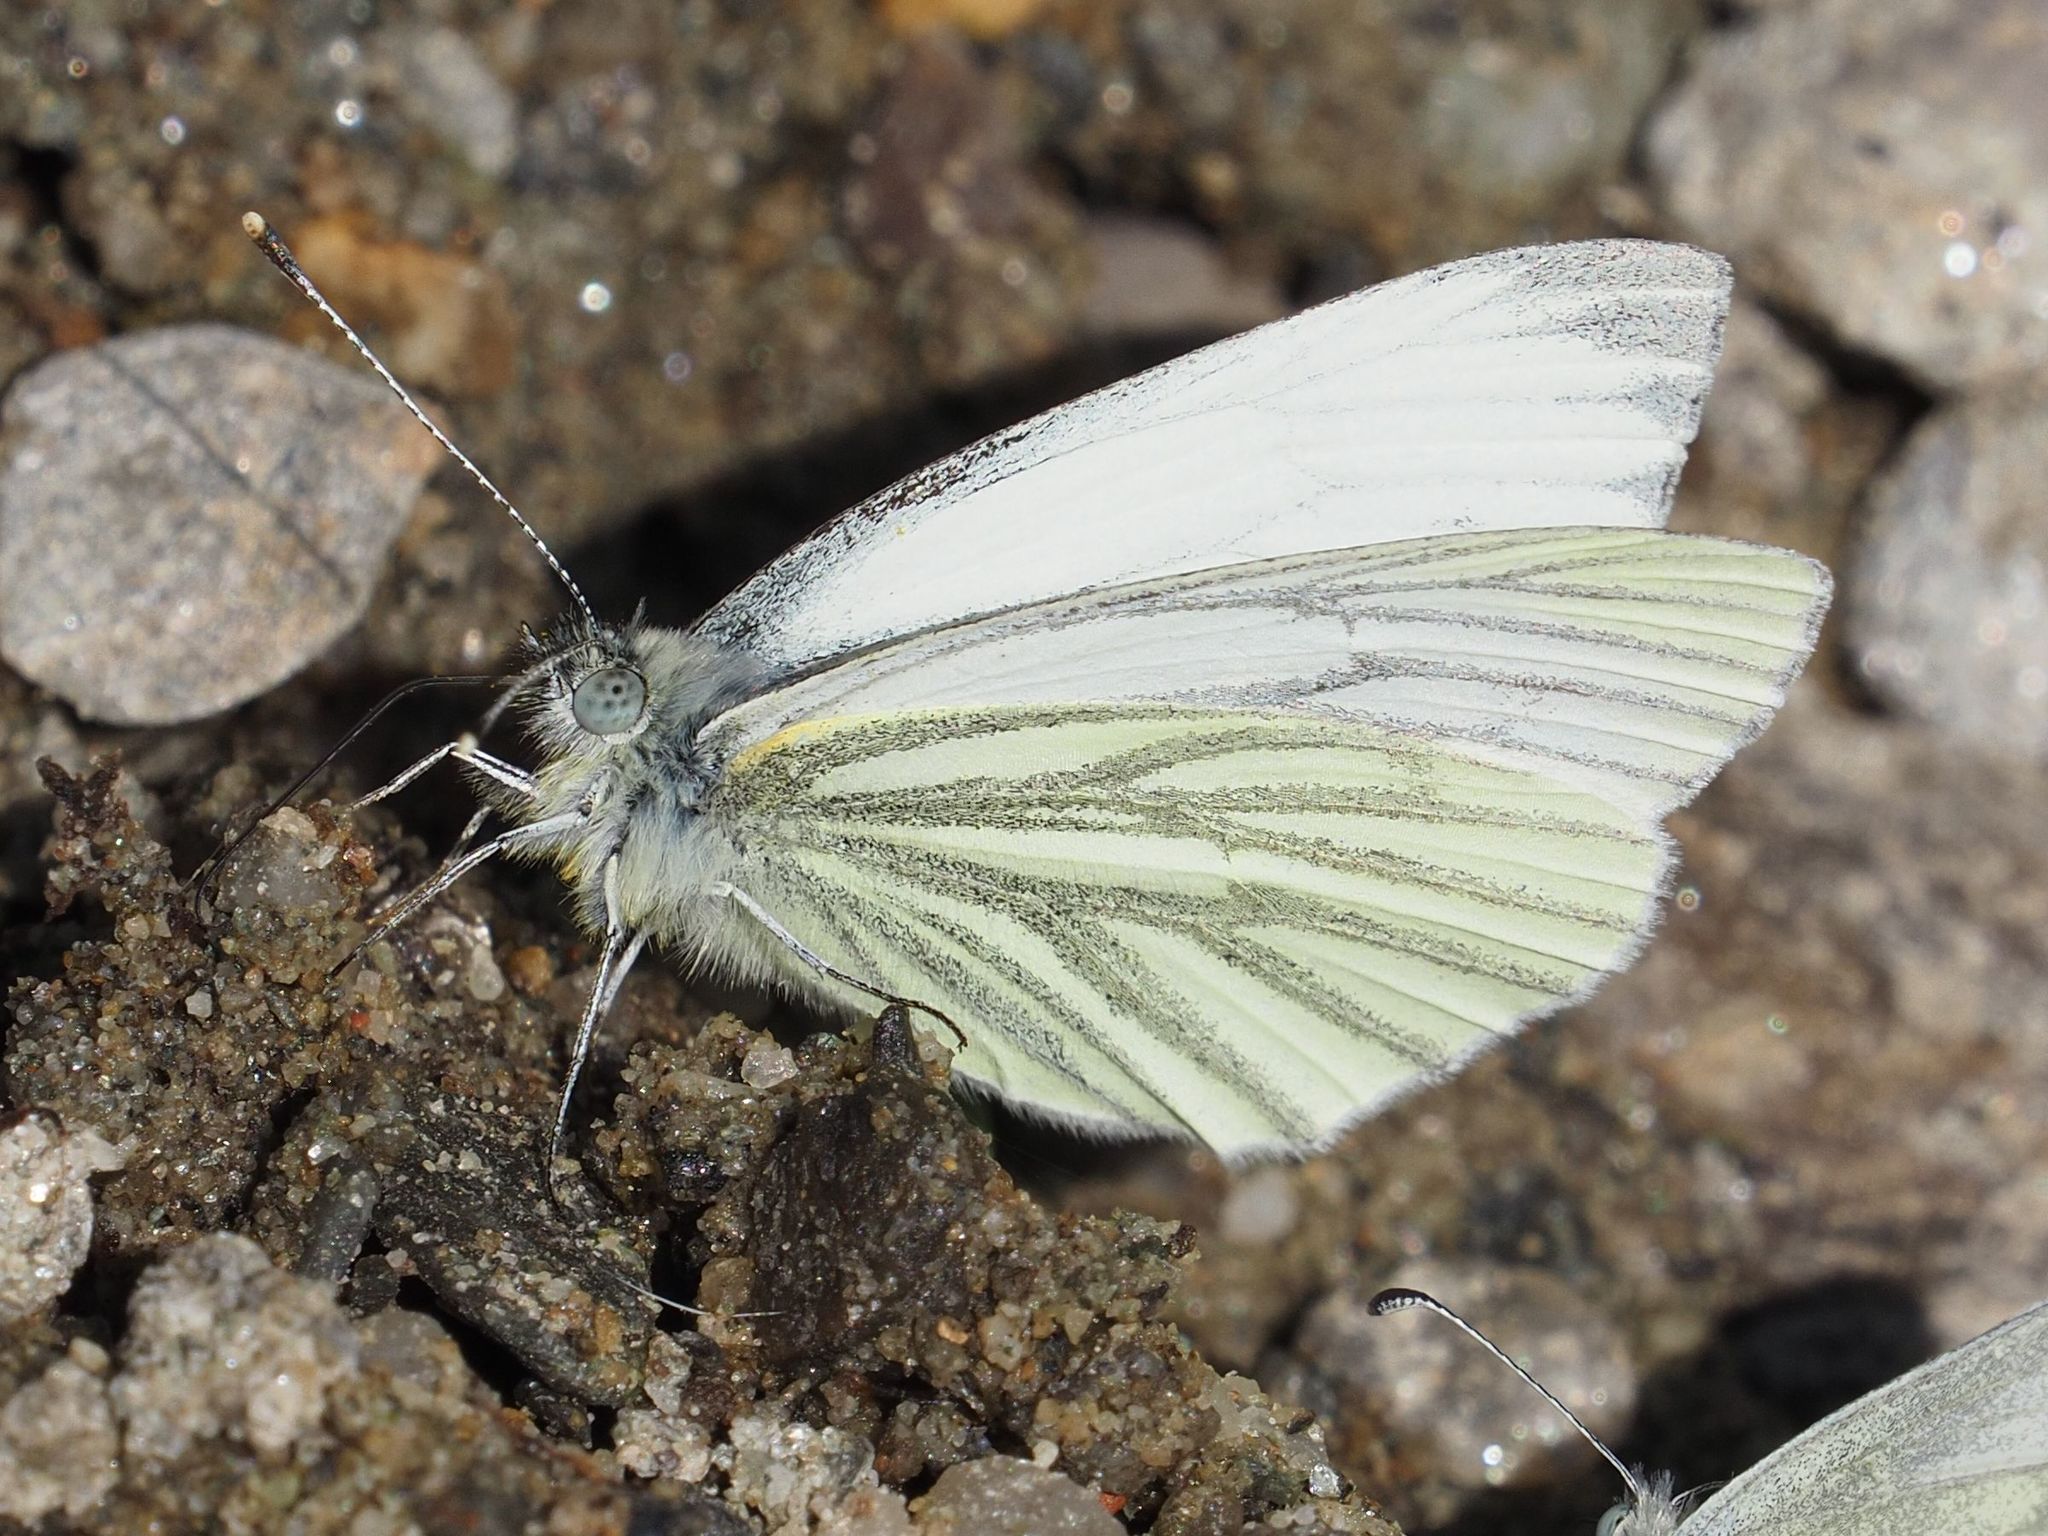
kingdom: Animalia
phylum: Arthropoda
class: Insecta
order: Lepidoptera
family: Pieridae
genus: Pieris
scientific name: Pieris napi
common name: Green-veined white
